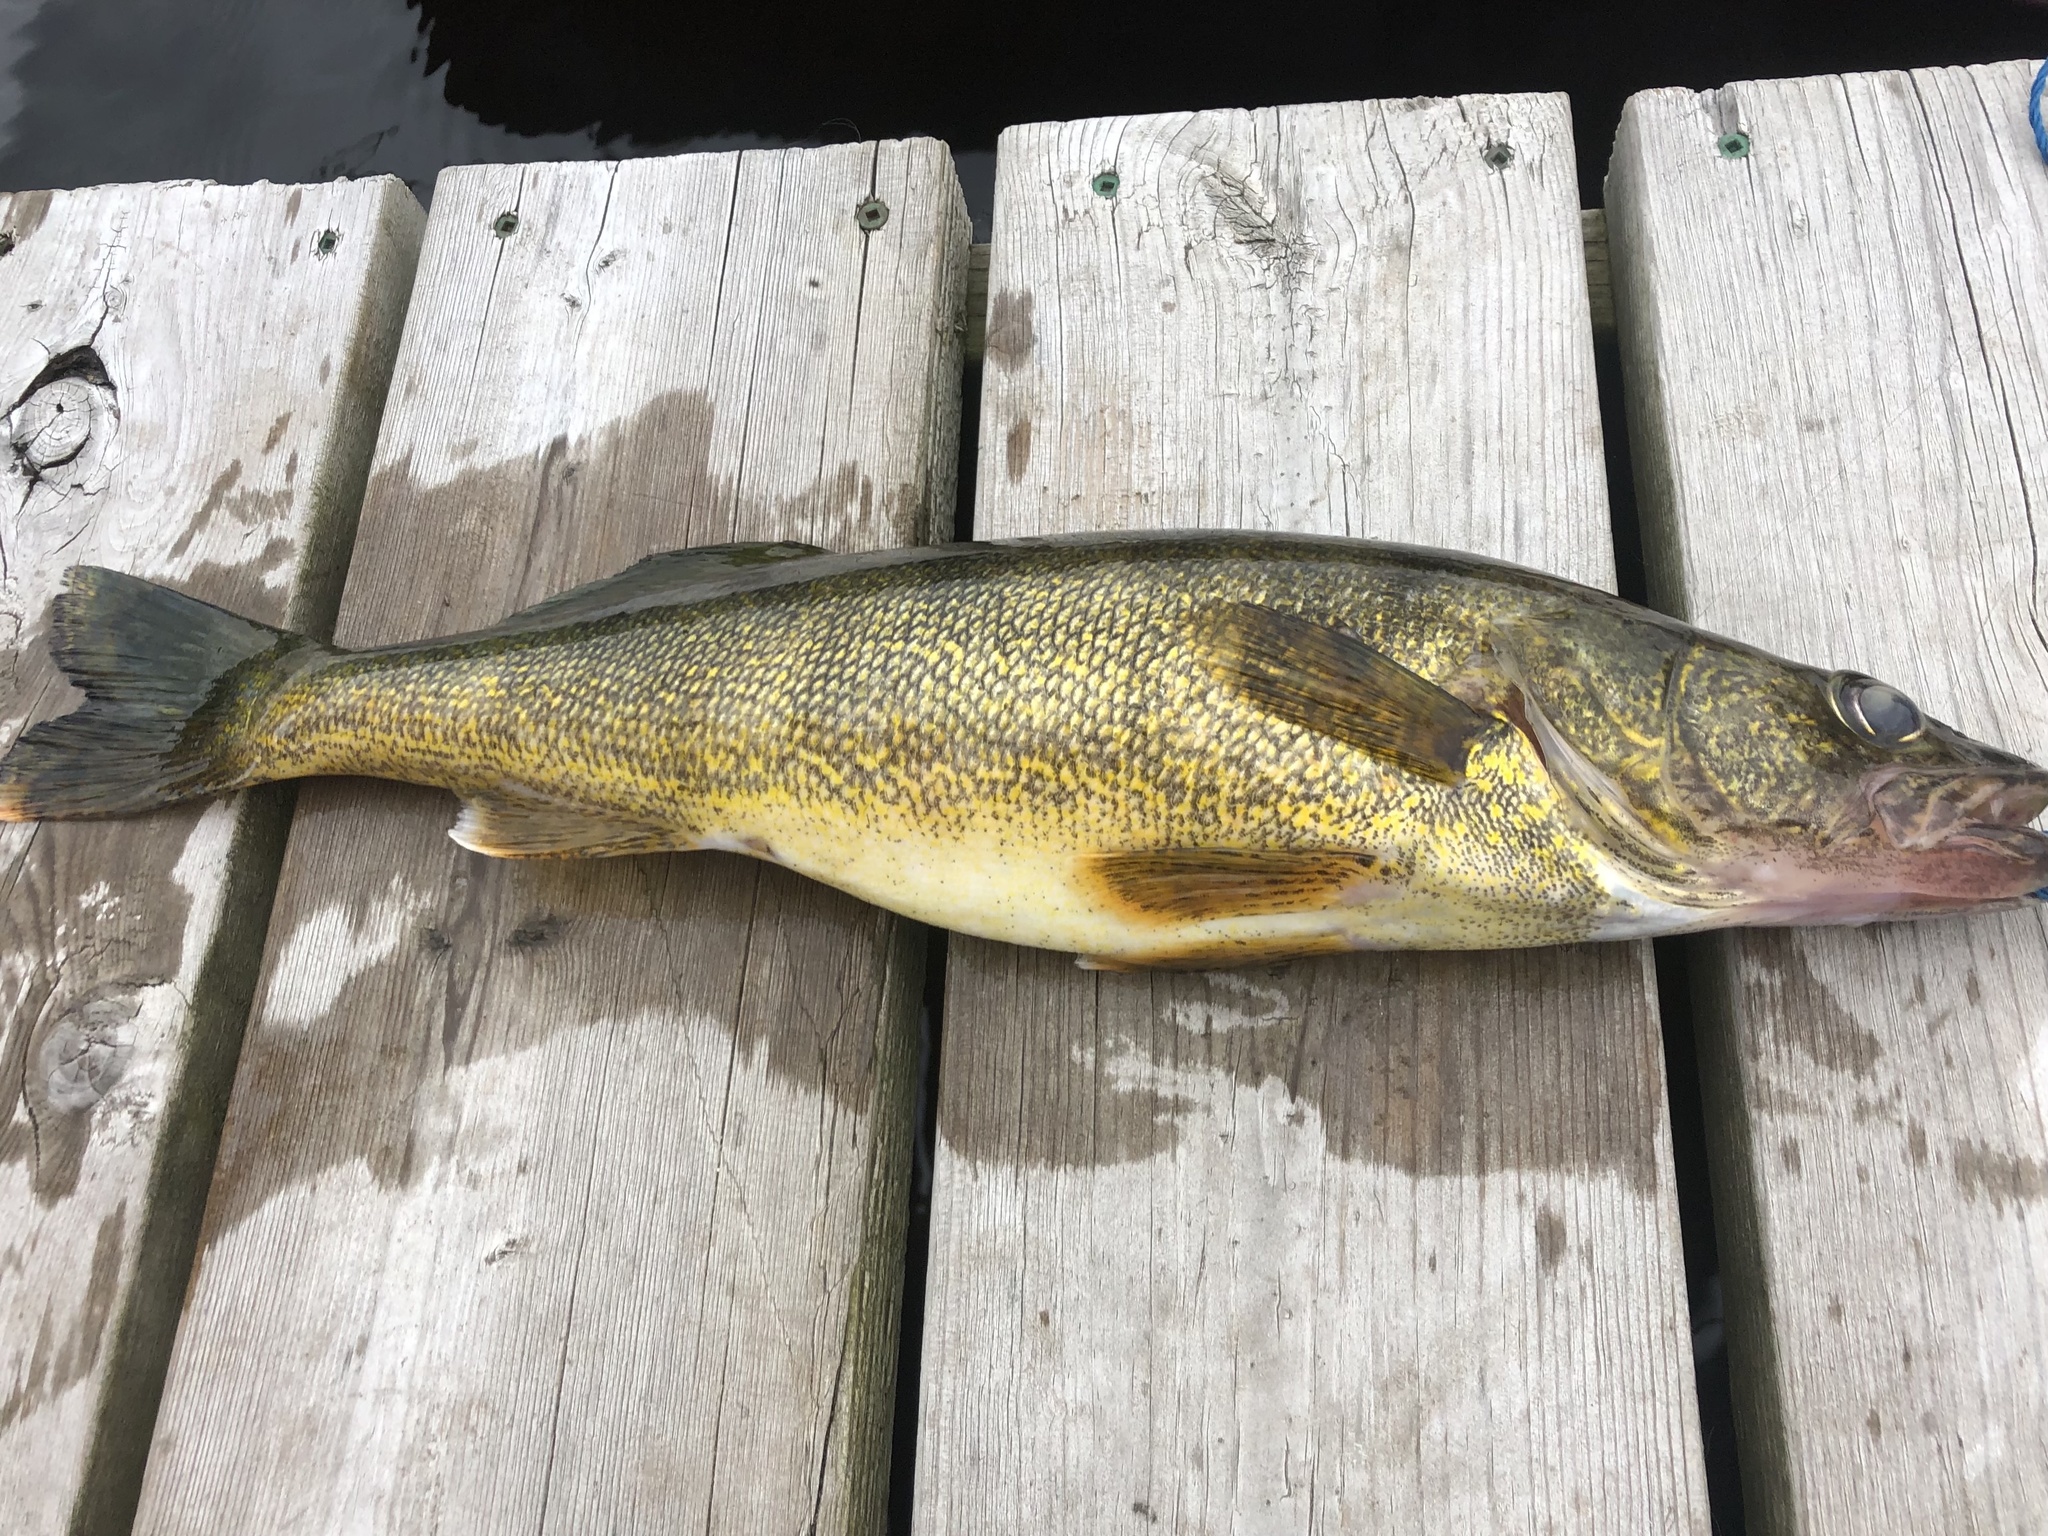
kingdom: Animalia
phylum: Chordata
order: Perciformes
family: Percidae
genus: Sander
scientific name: Sander vitreus
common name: Walleye
